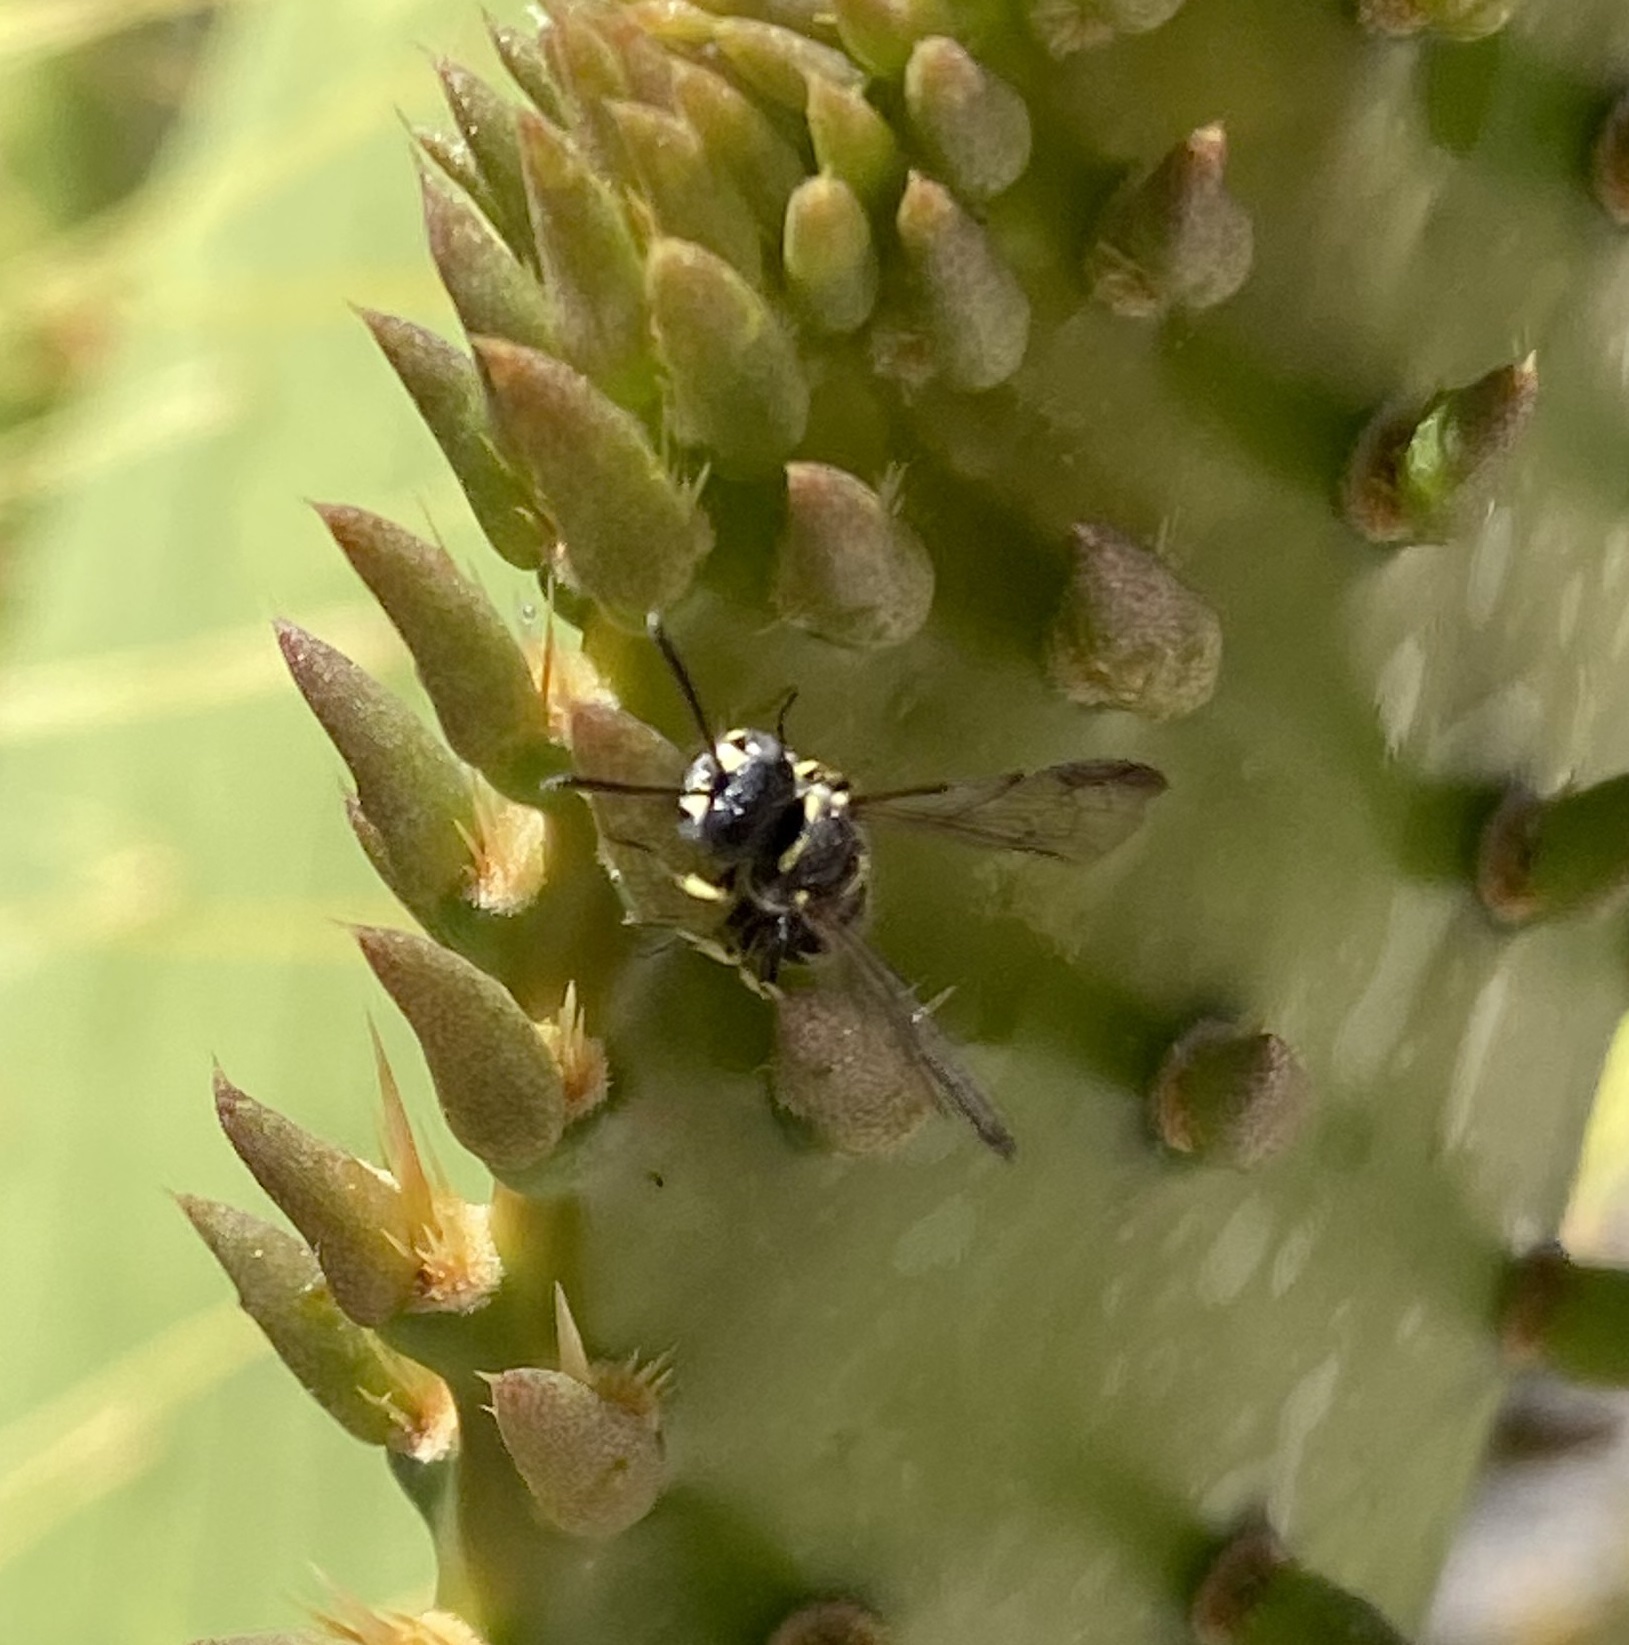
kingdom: Animalia
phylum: Arthropoda
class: Insecta
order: Hymenoptera
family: Crabronidae
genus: Cerceris
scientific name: Cerceris
